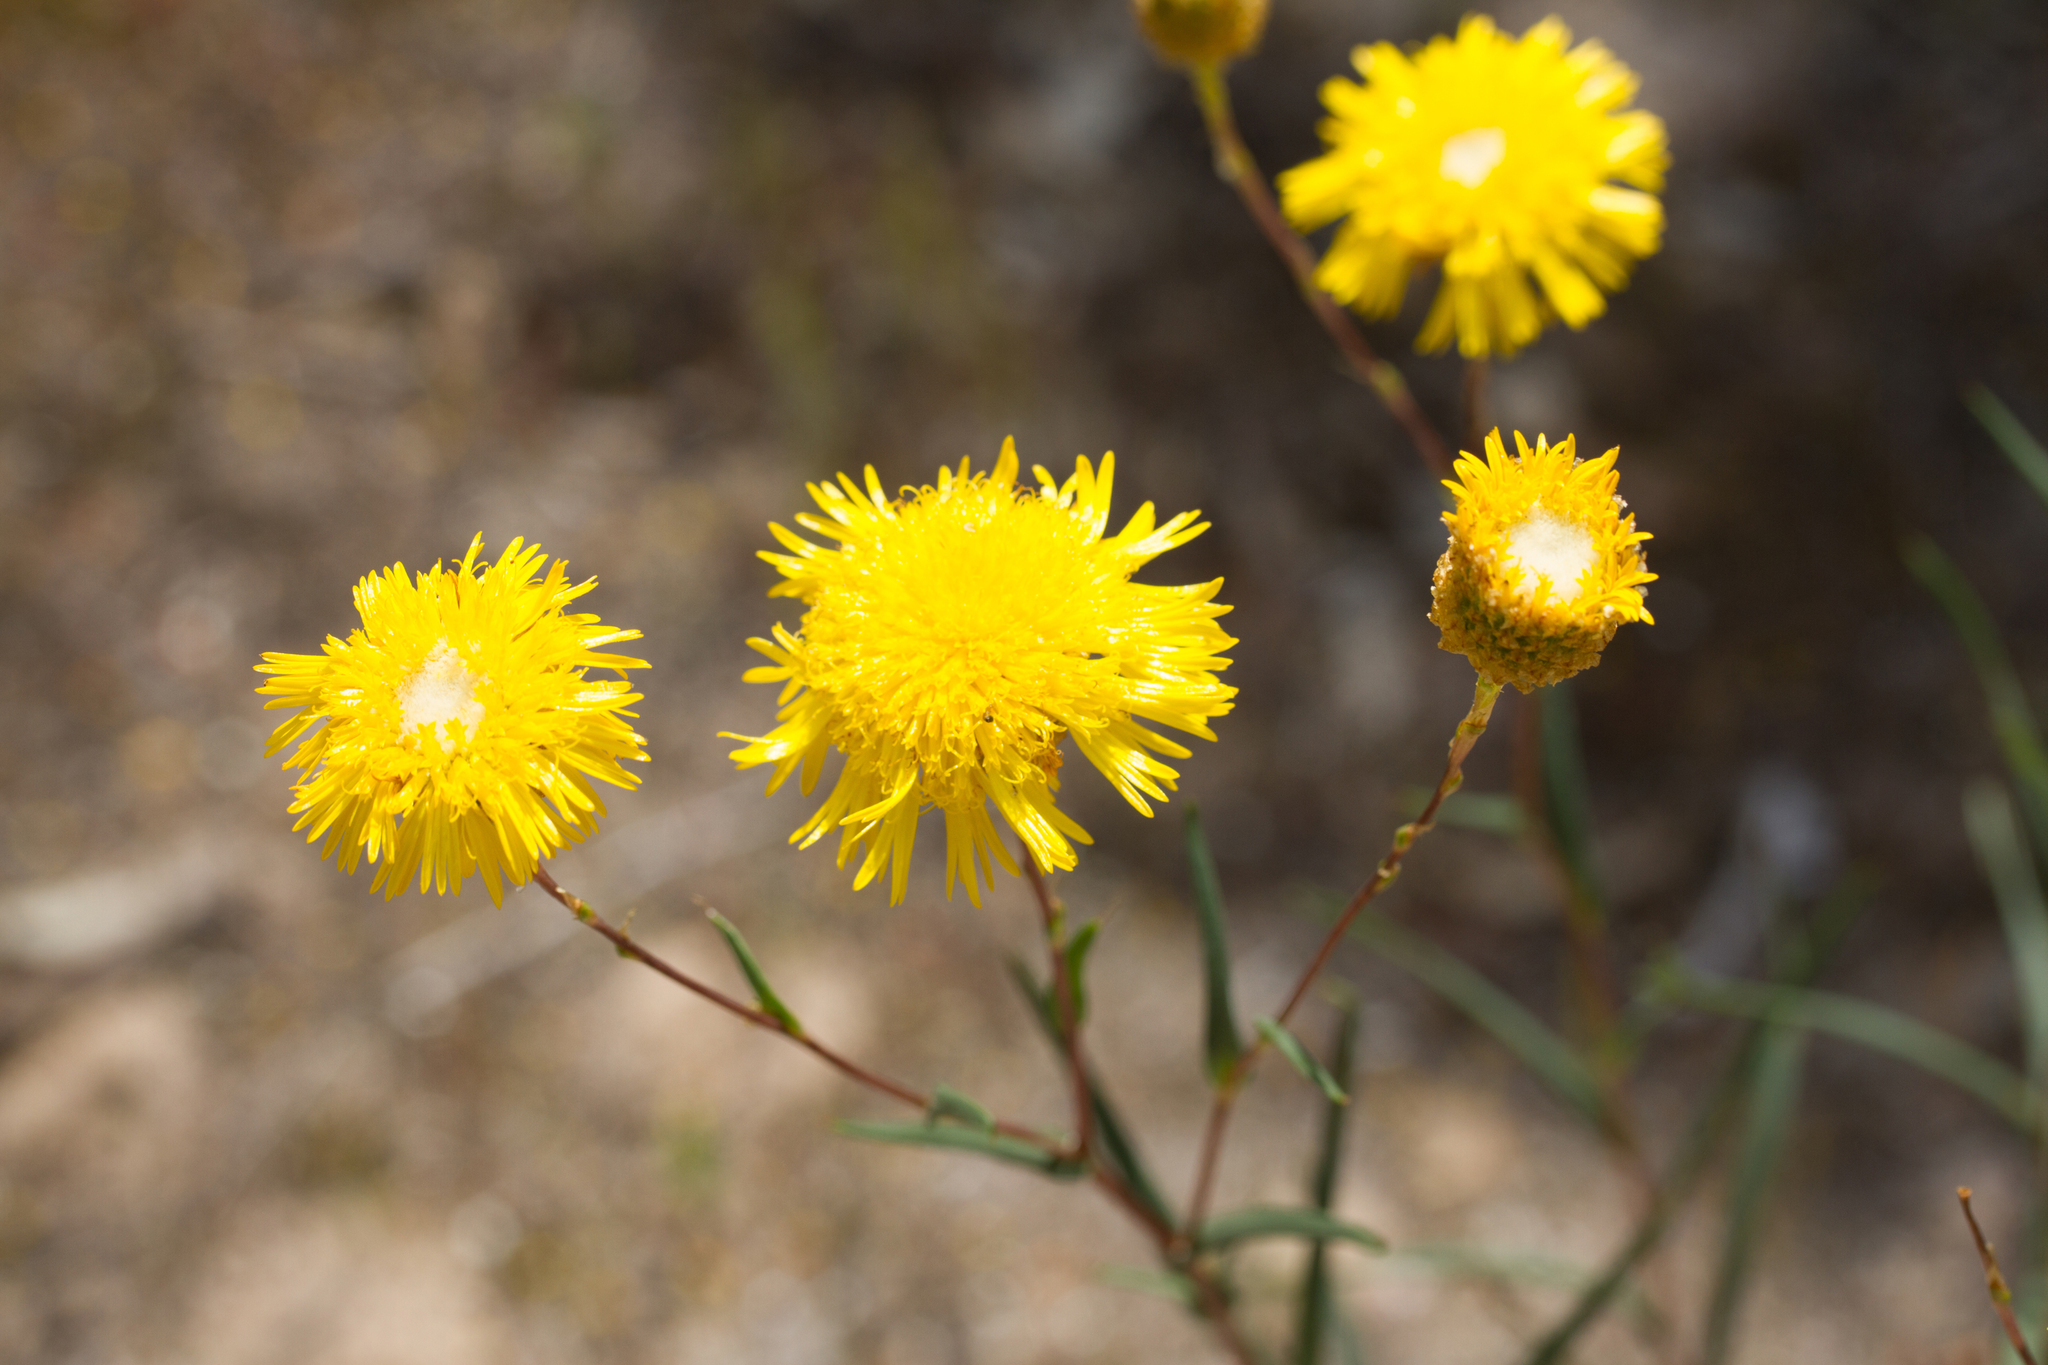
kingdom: Plantae
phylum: Tracheophyta
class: Magnoliopsida
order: Asterales
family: Asteraceae
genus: Podolepis
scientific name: Podolepis rugata
